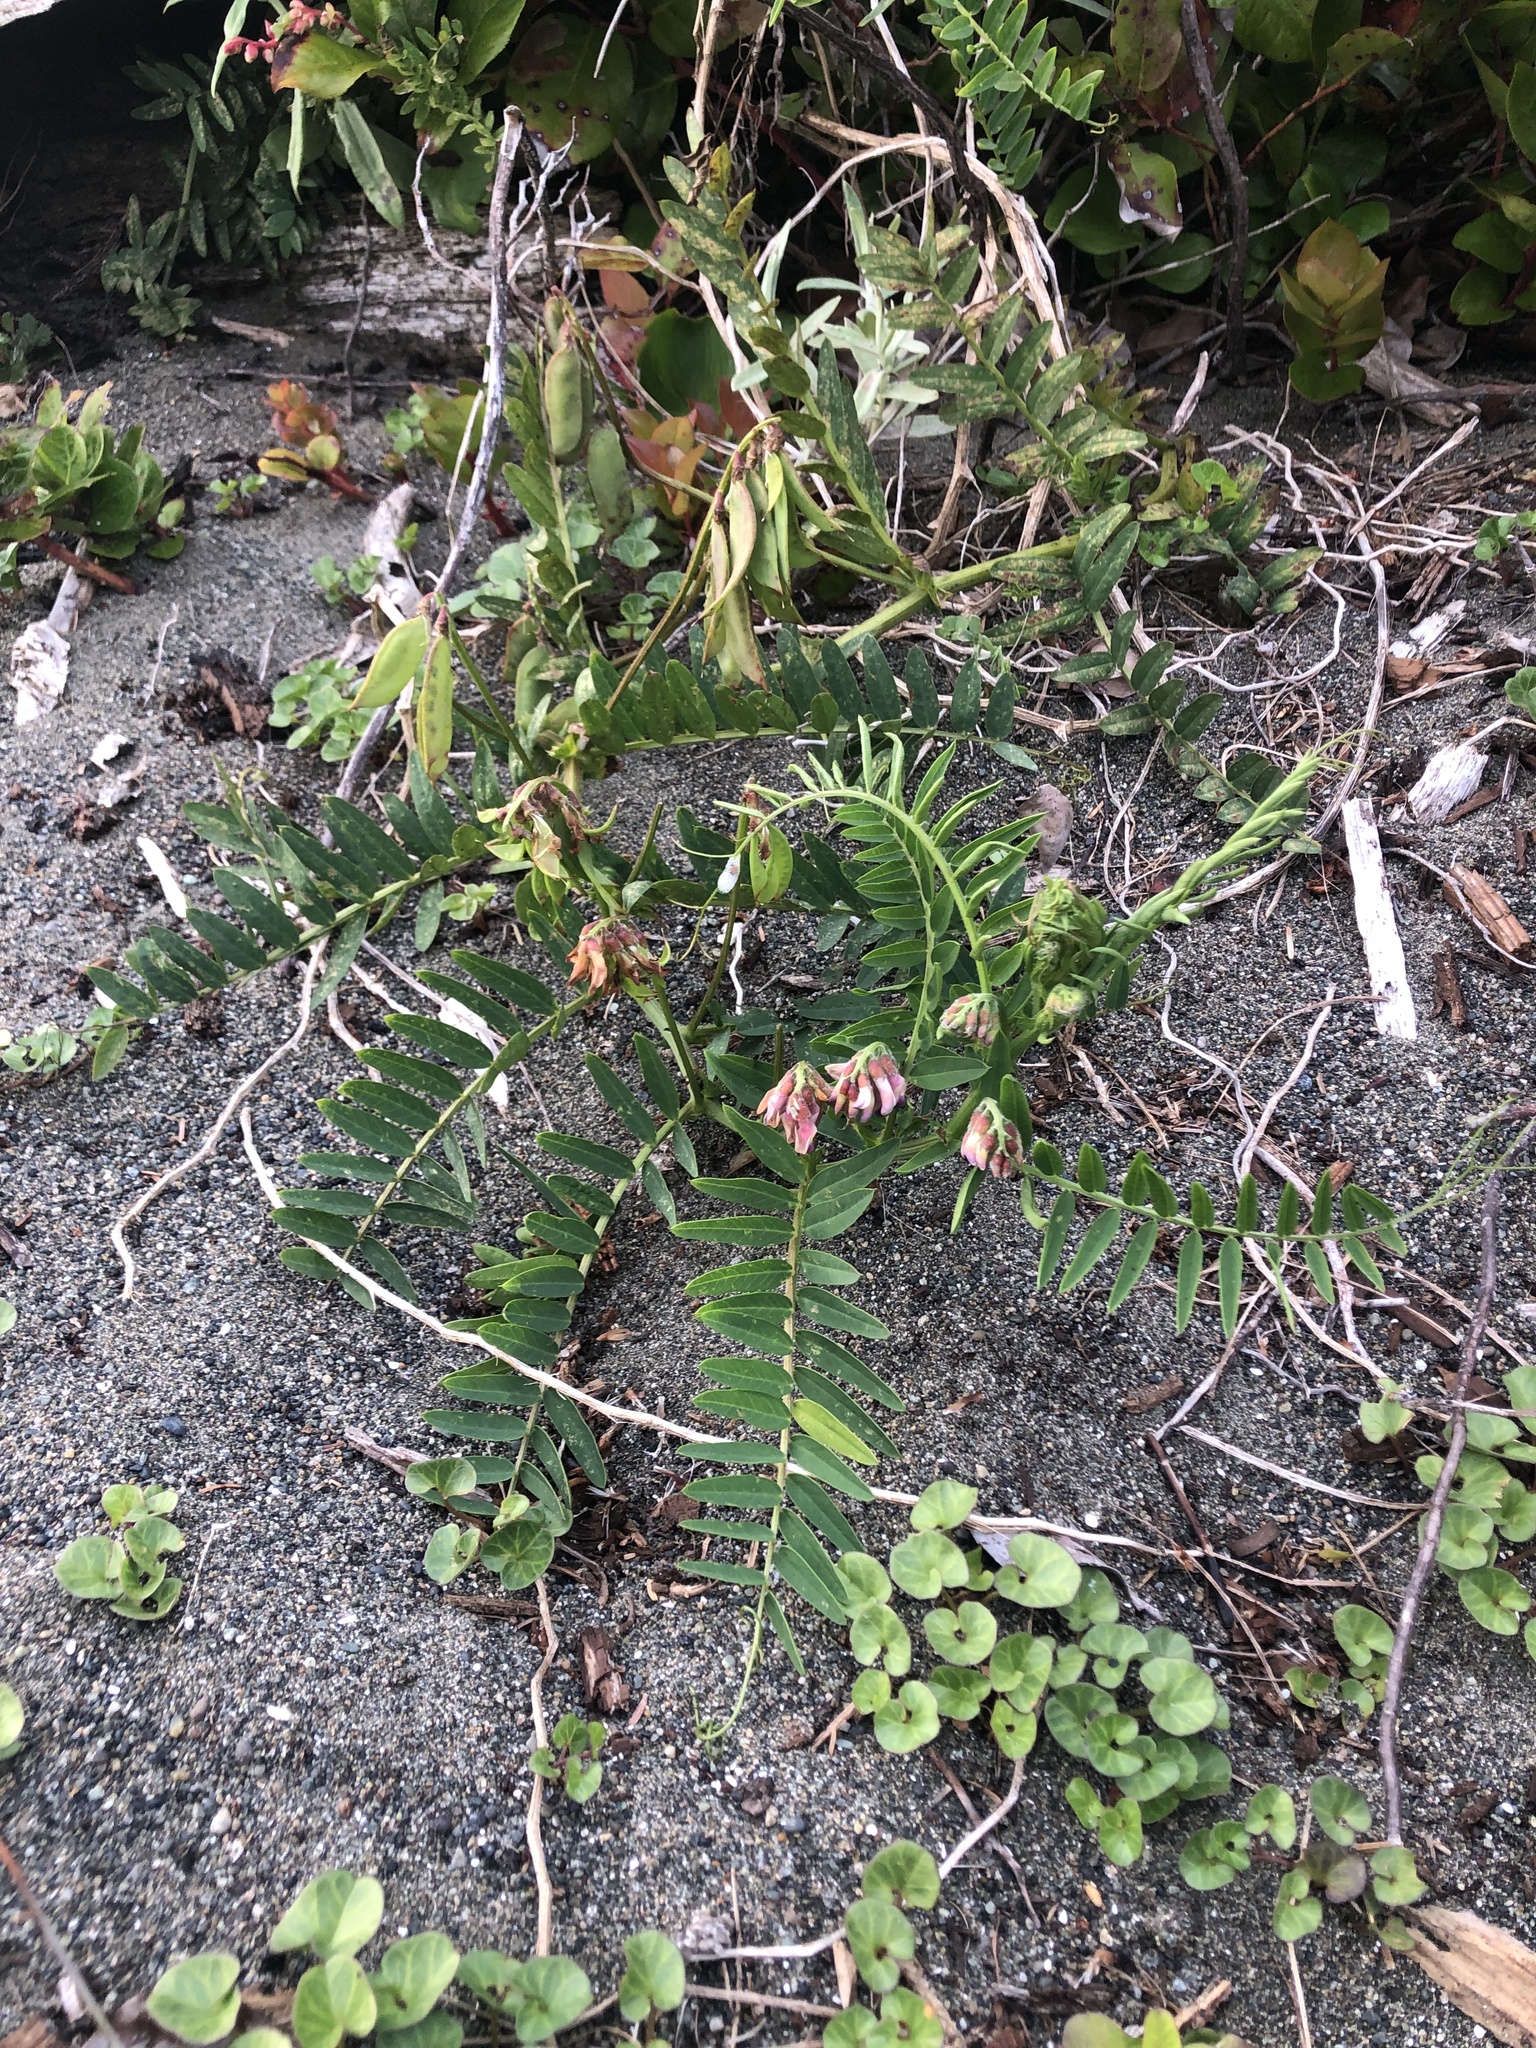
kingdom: Plantae
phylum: Tracheophyta
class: Magnoliopsida
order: Fabales
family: Fabaceae
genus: Vicia
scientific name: Vicia
